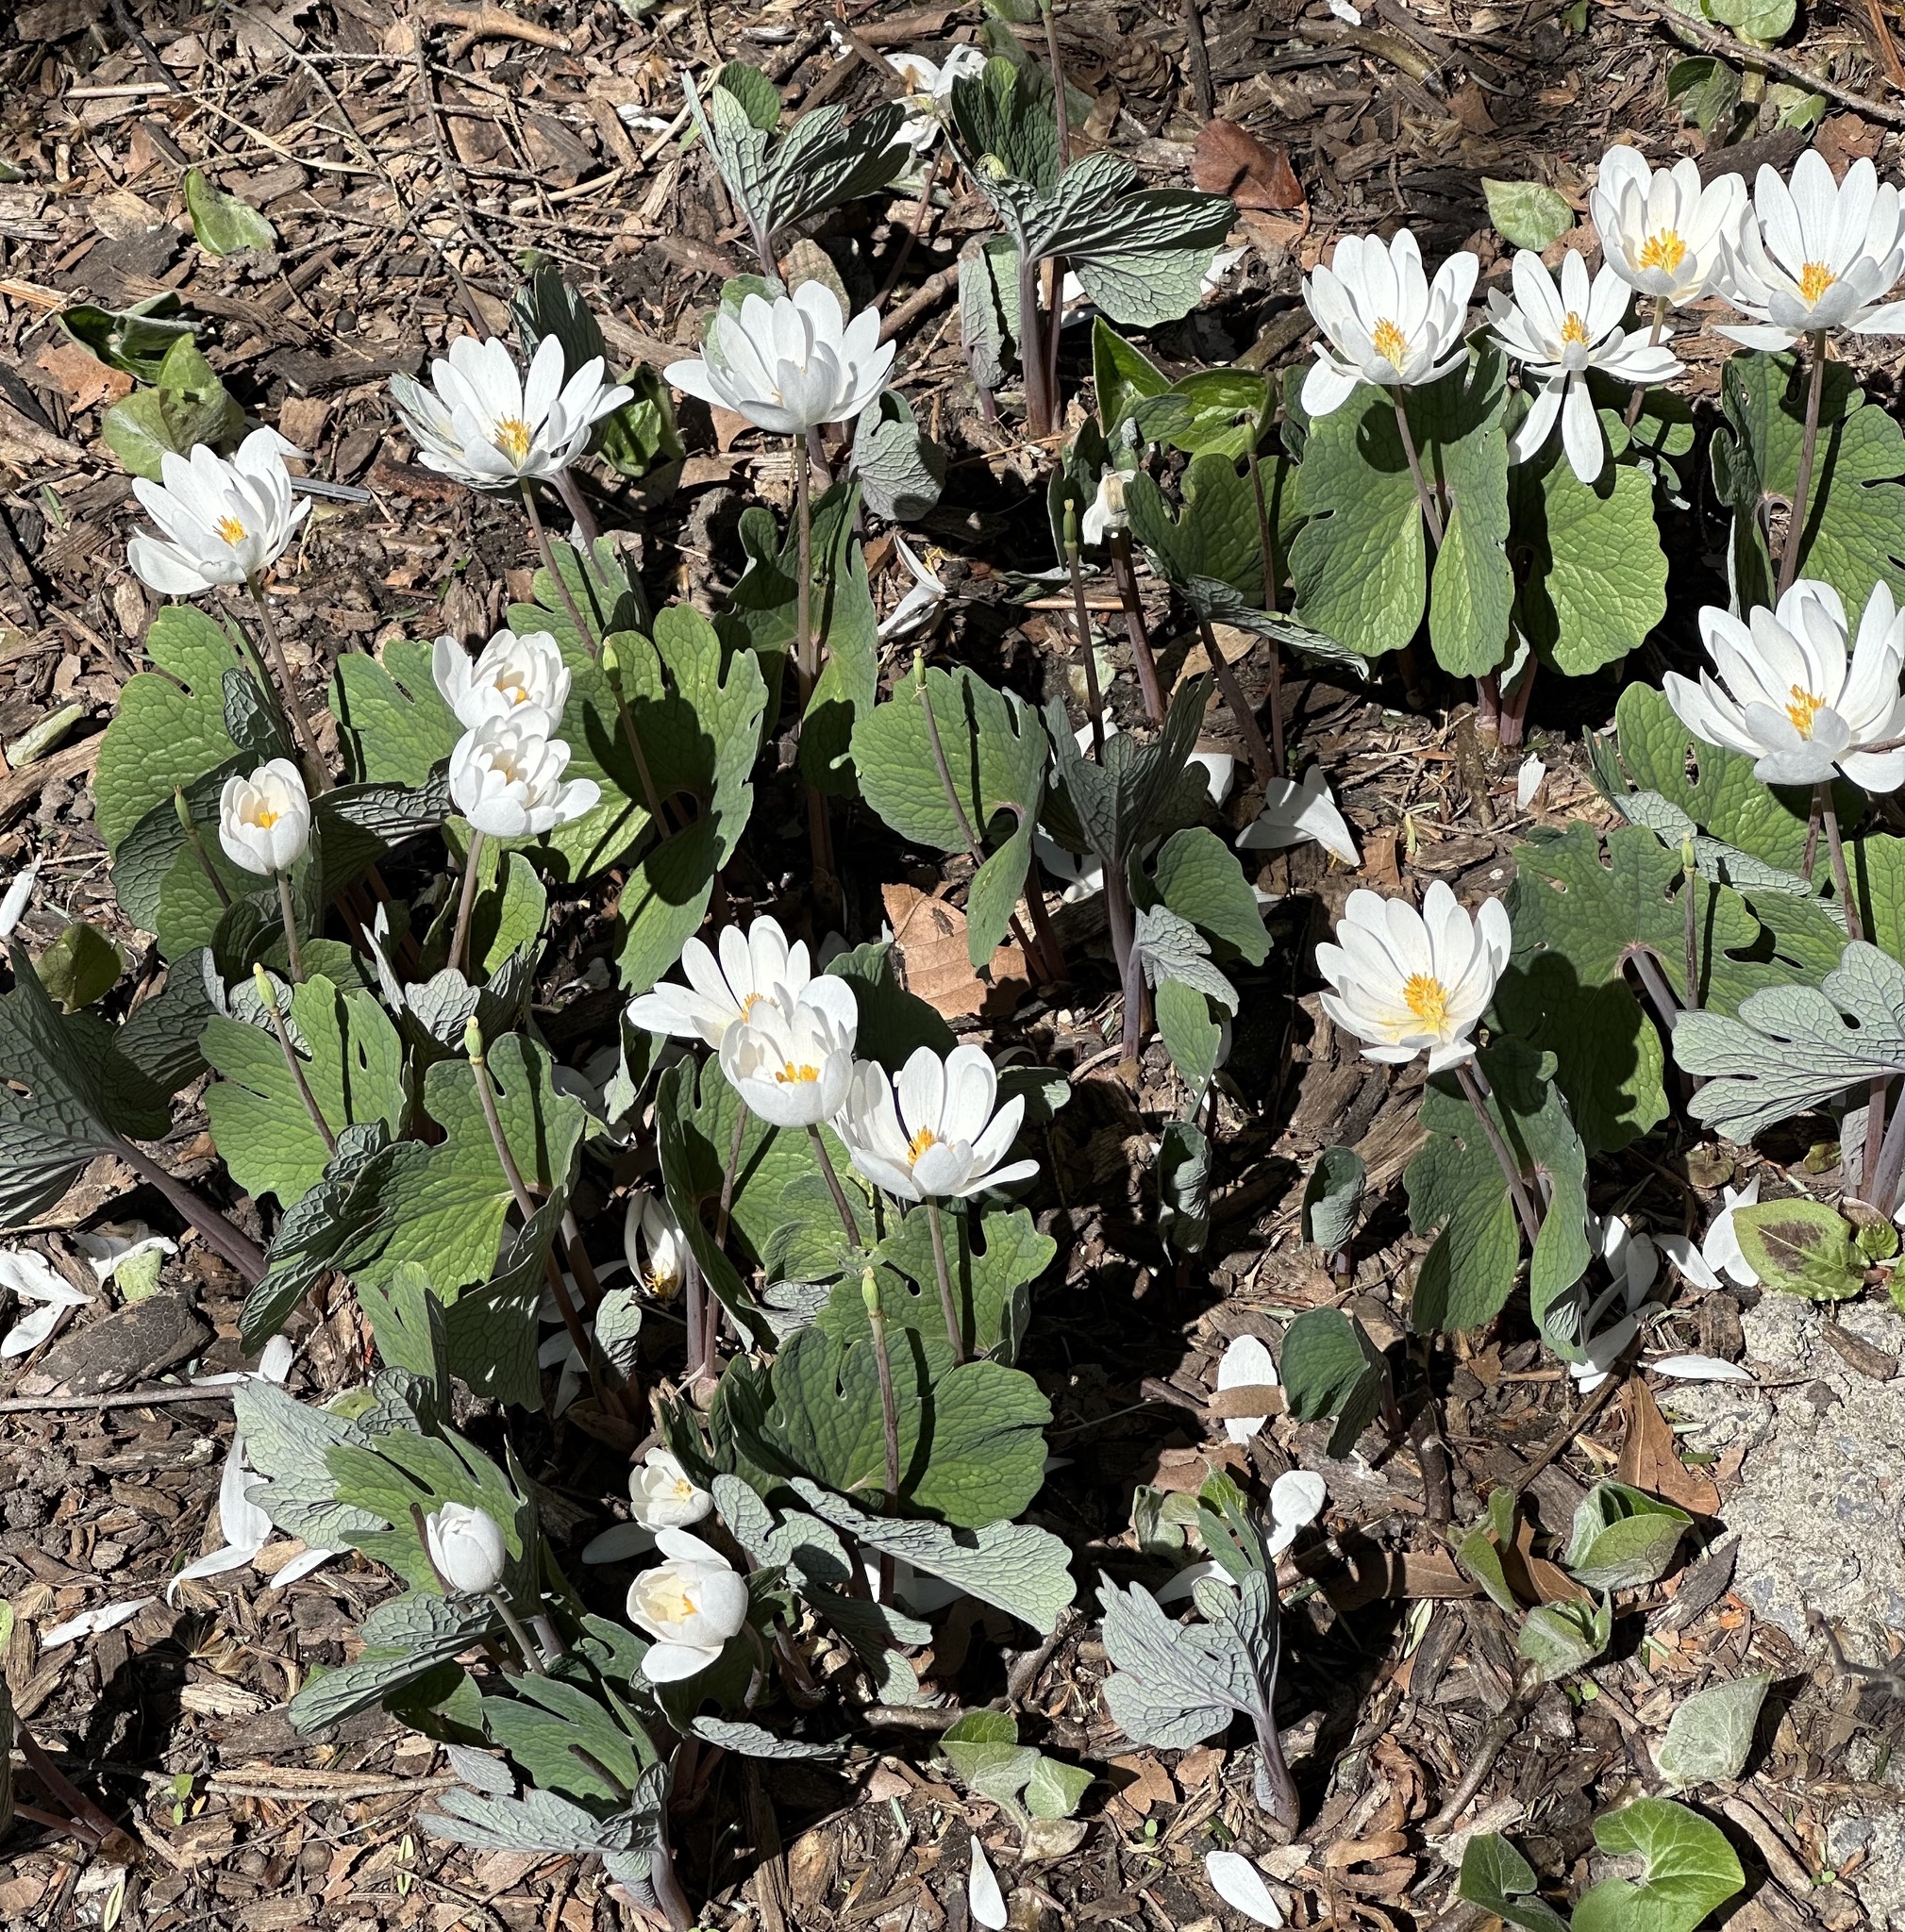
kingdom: Plantae
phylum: Tracheophyta
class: Magnoliopsida
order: Ranunculales
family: Papaveraceae
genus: Sanguinaria
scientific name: Sanguinaria canadensis
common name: Bloodroot
